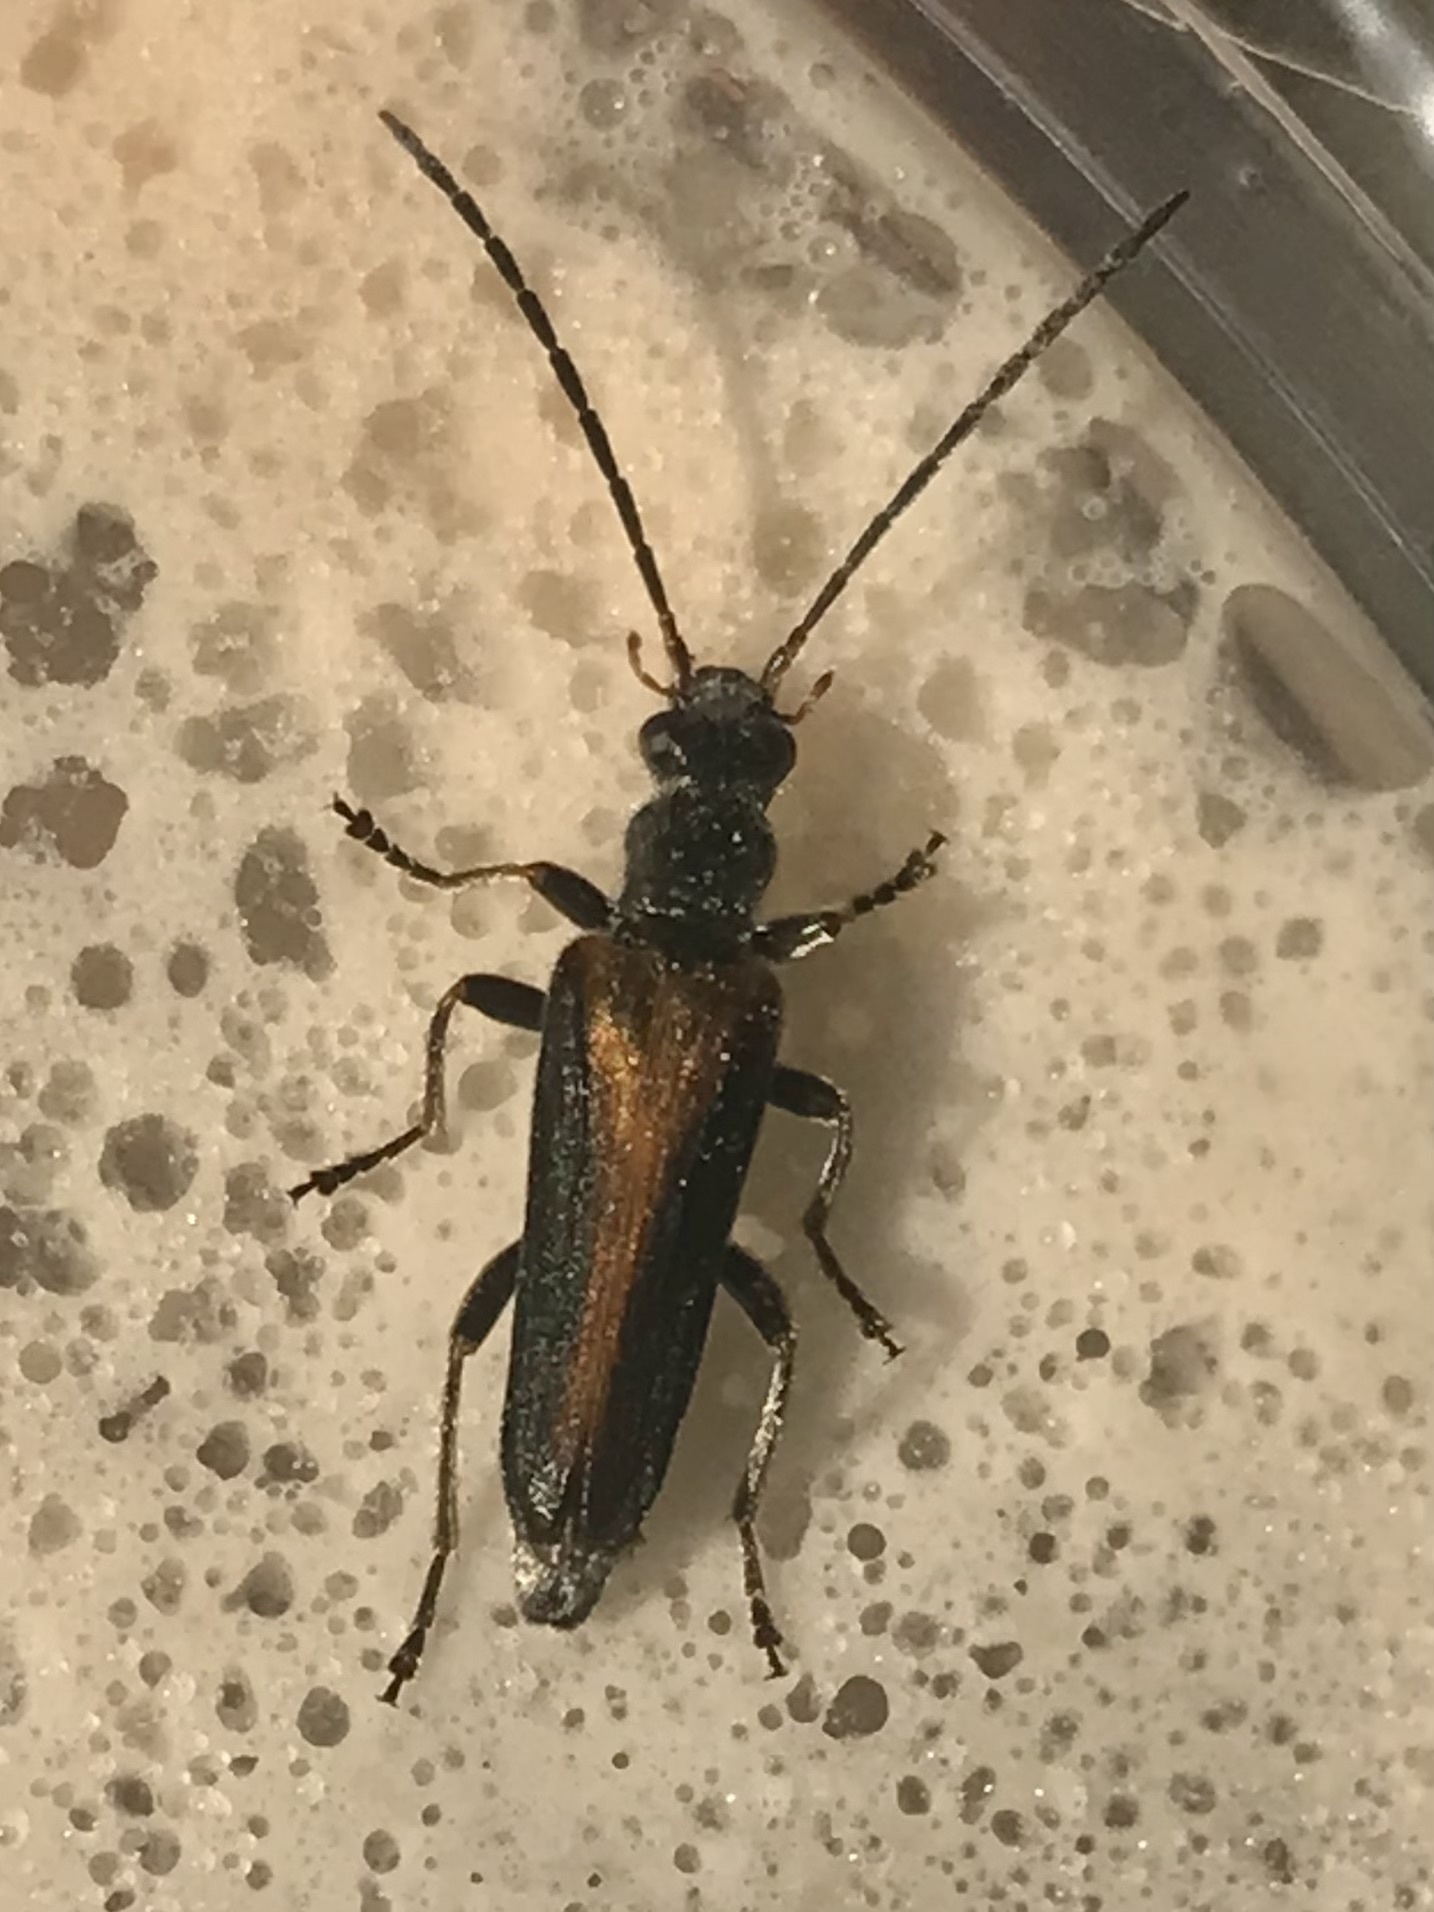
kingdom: Animalia
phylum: Arthropoda
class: Insecta
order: Coleoptera
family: Oedemeridae
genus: Anogcodes
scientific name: Anogcodes rufiventris
